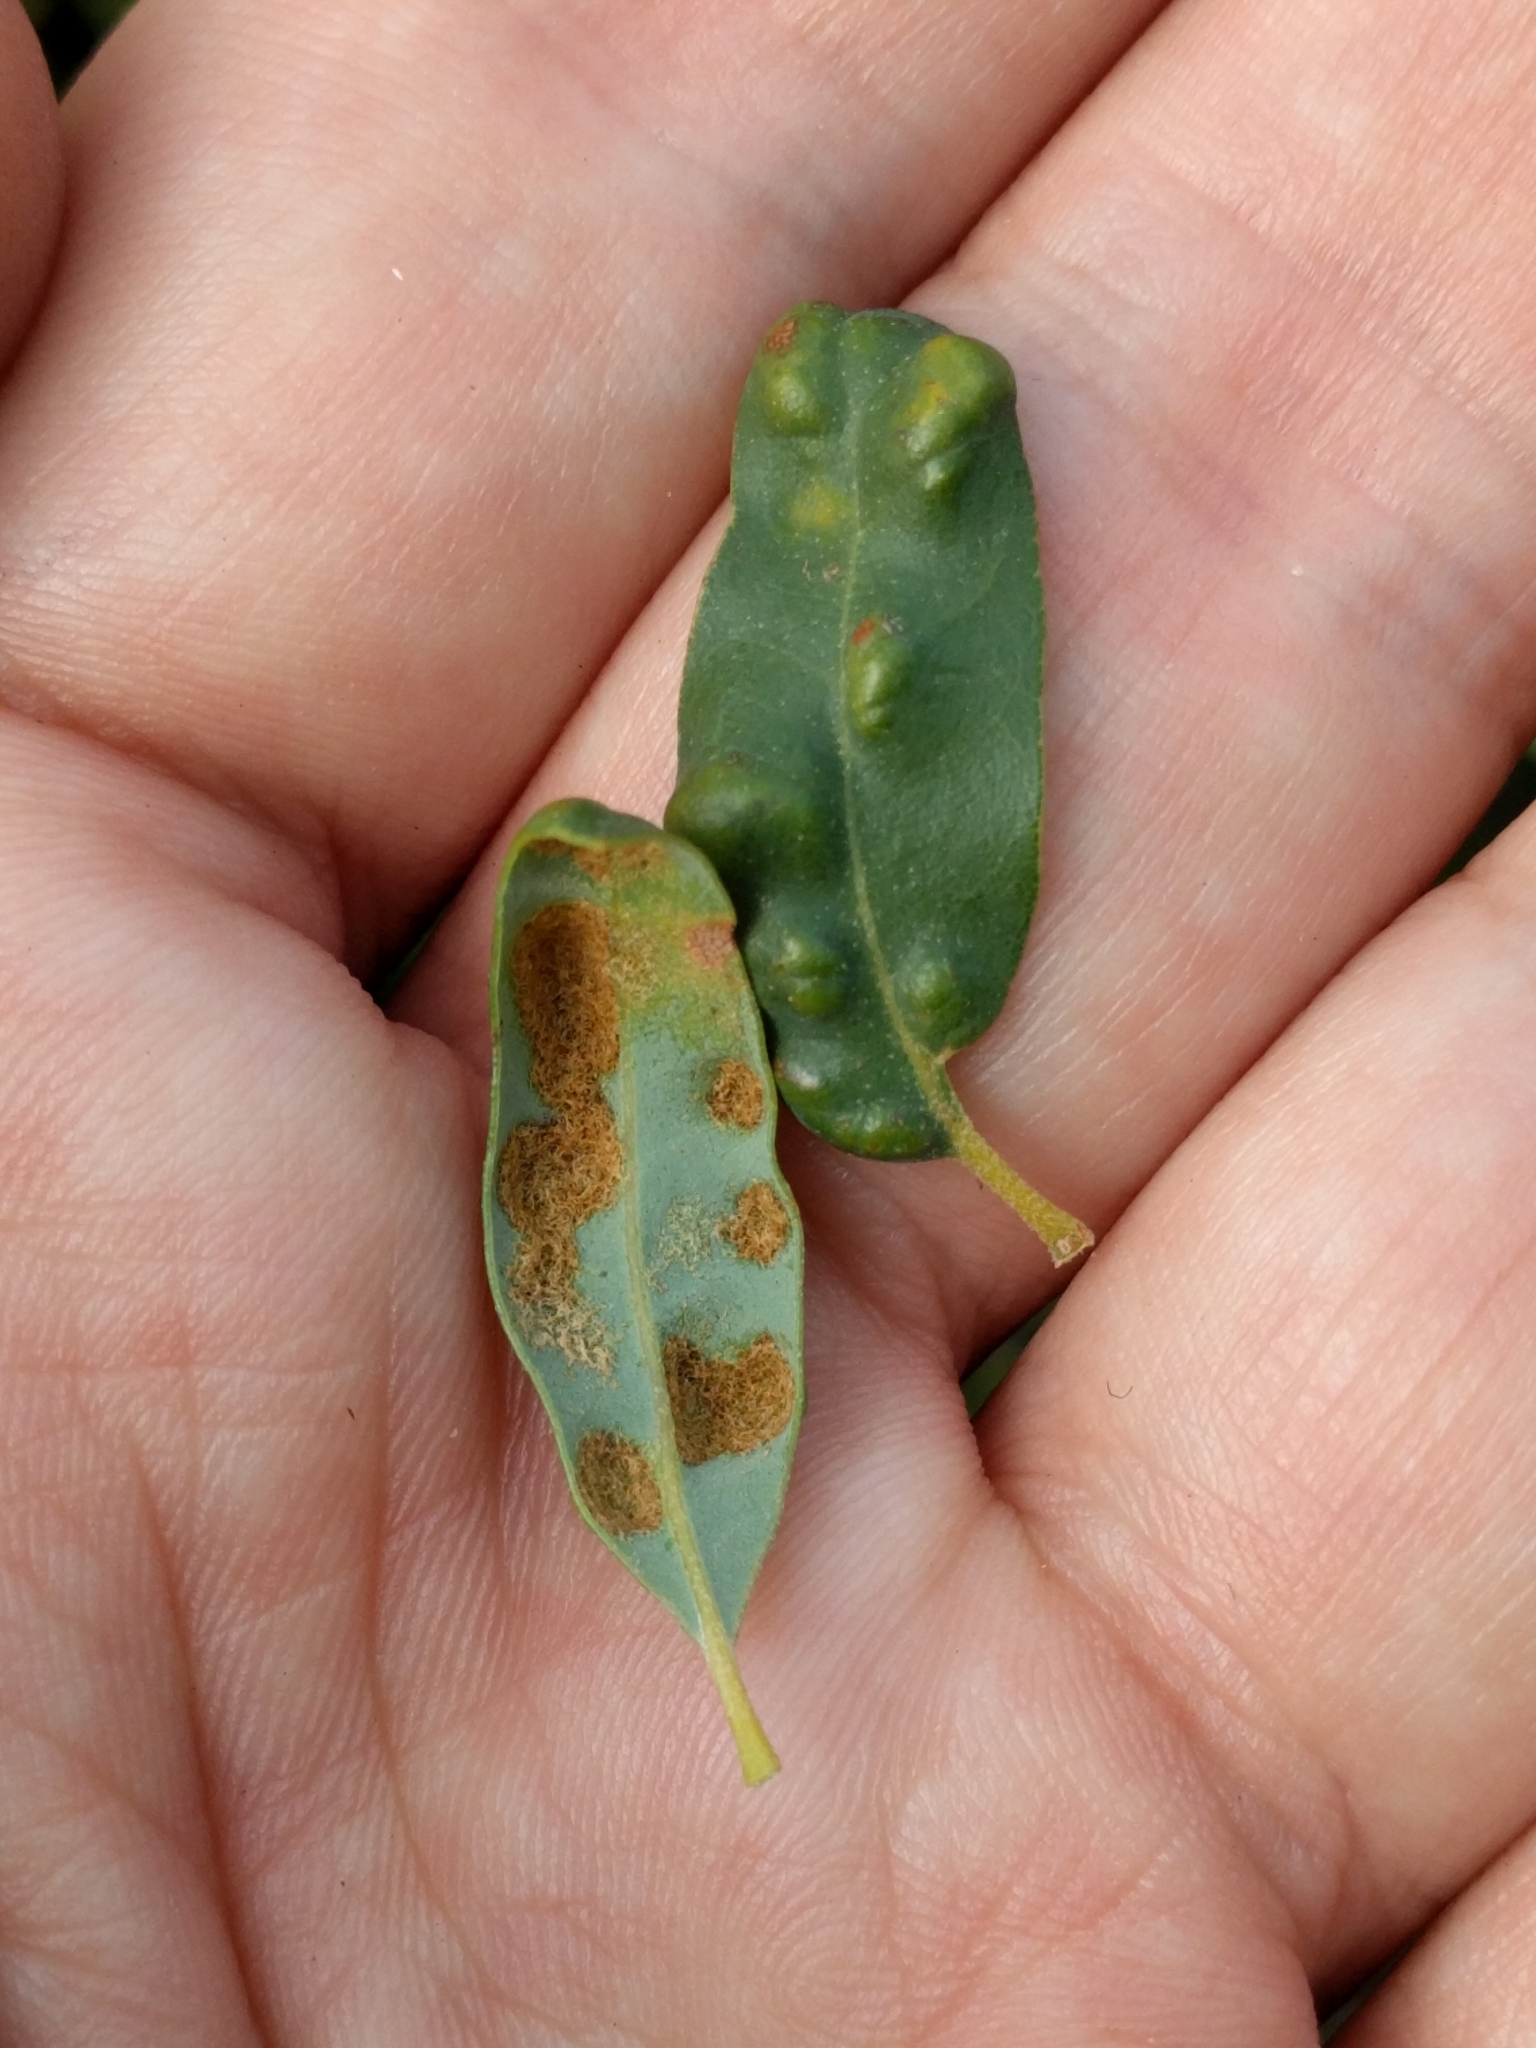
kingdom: Animalia
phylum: Arthropoda
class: Arachnida
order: Trombidiformes
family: Eriophyidae
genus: Aceria
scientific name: Aceria
